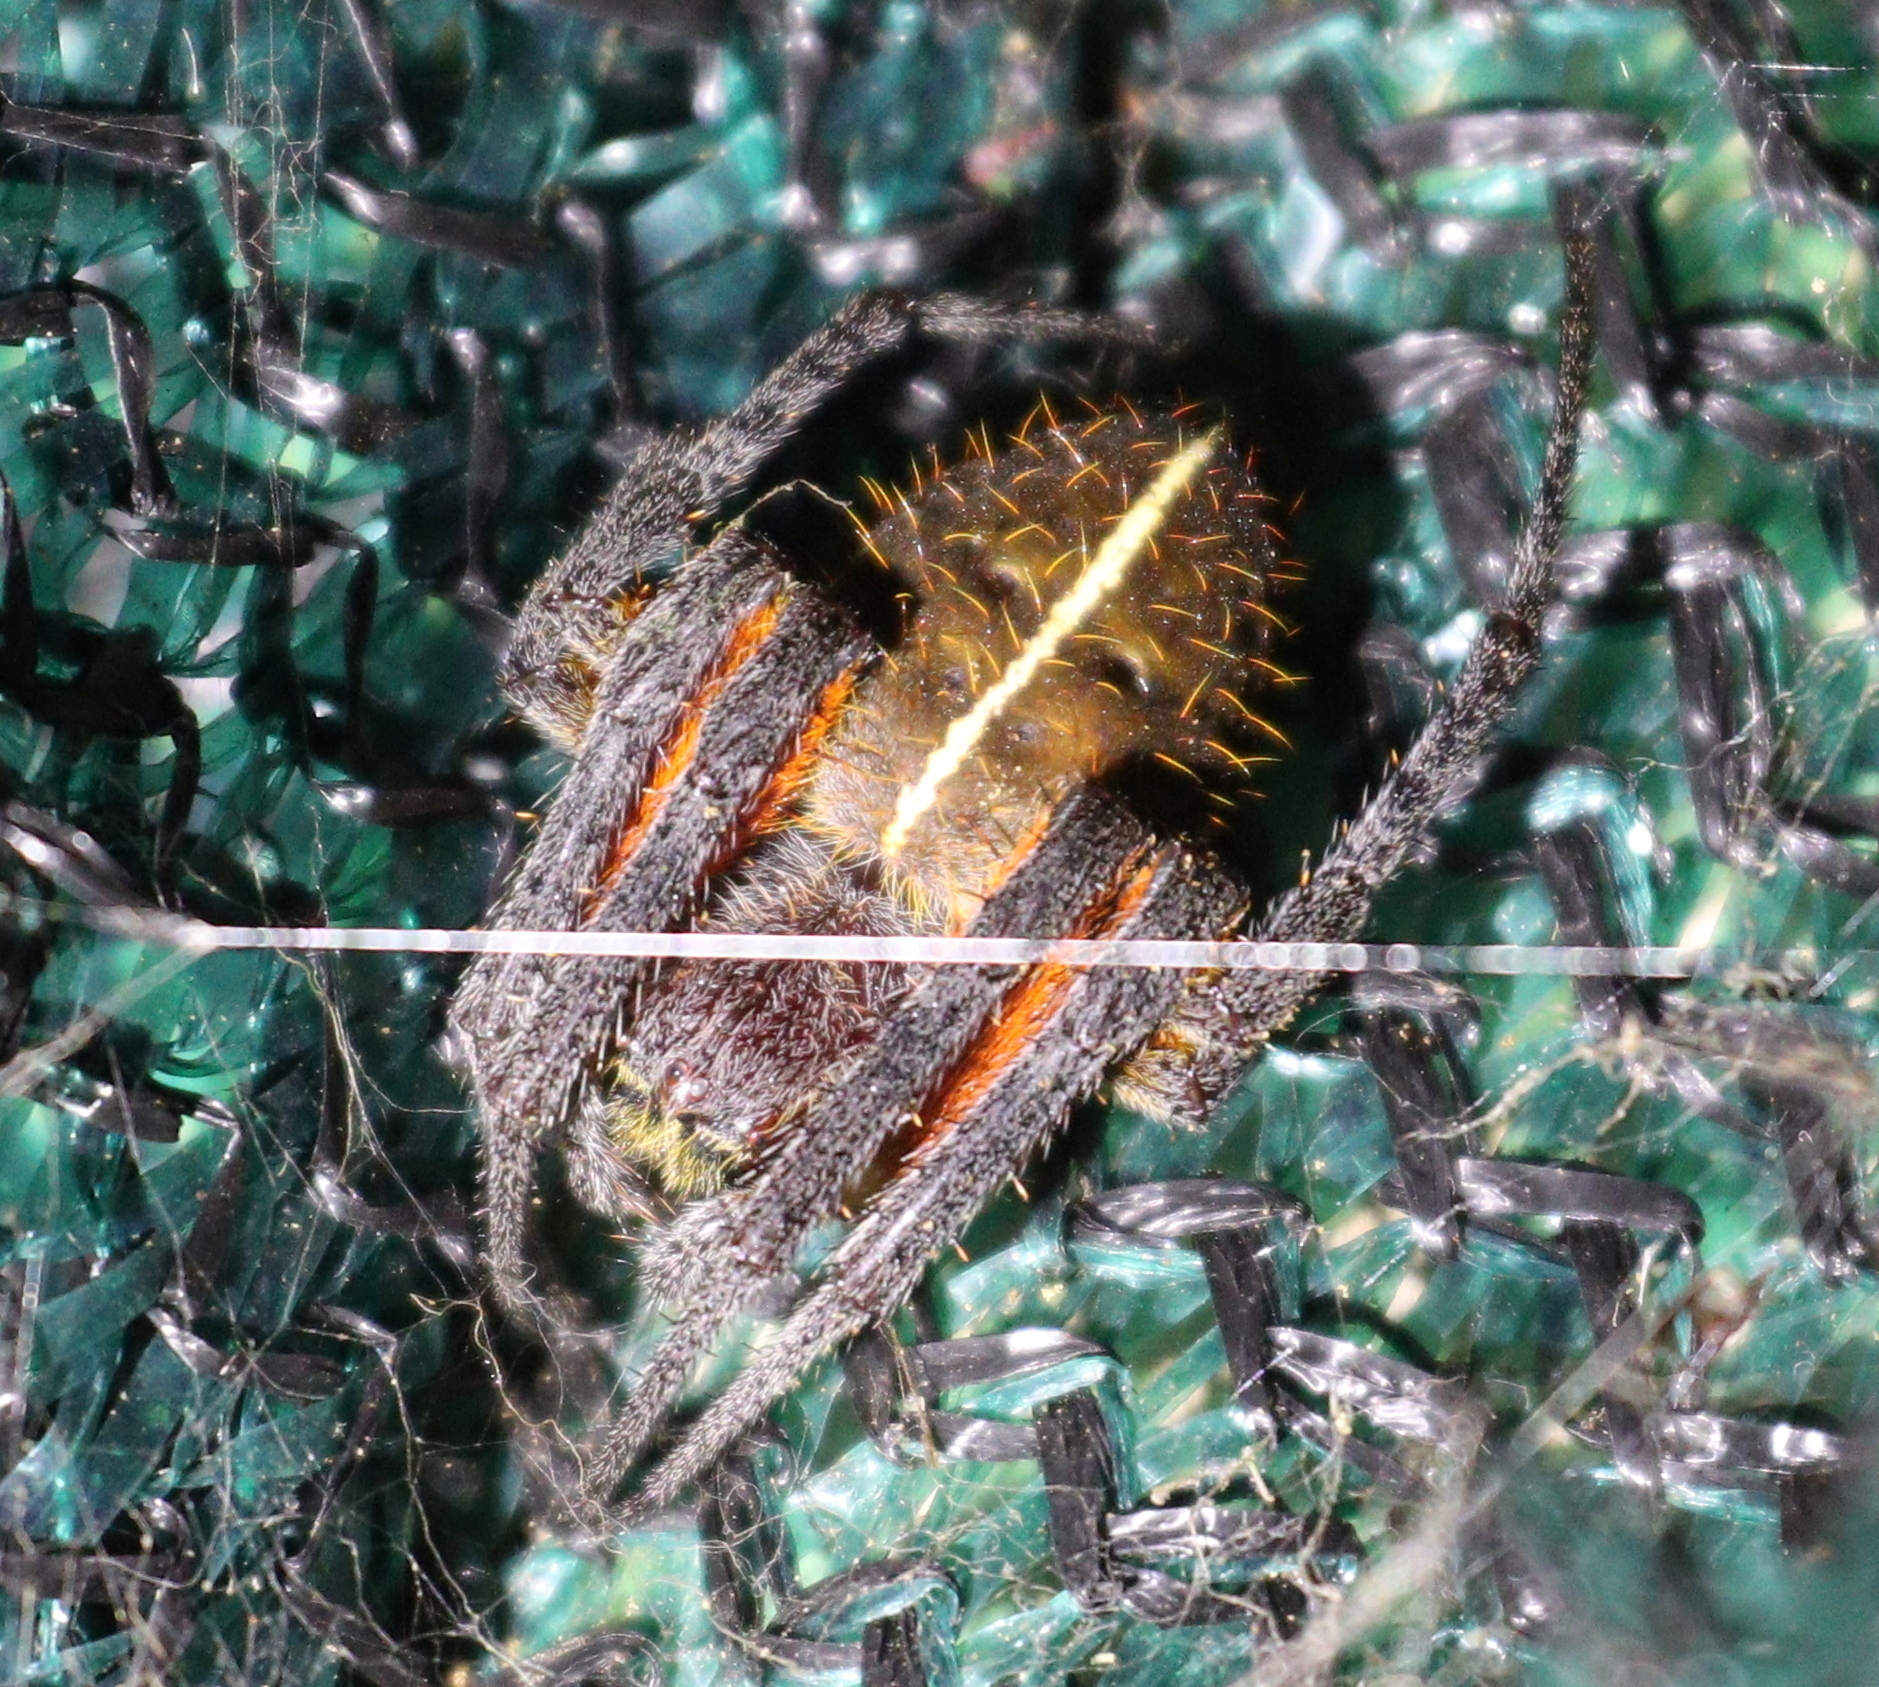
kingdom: Animalia
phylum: Arthropoda
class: Arachnida
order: Araneae
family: Araneidae
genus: Eriophora
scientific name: Eriophora fuliginea
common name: Orb weavers
